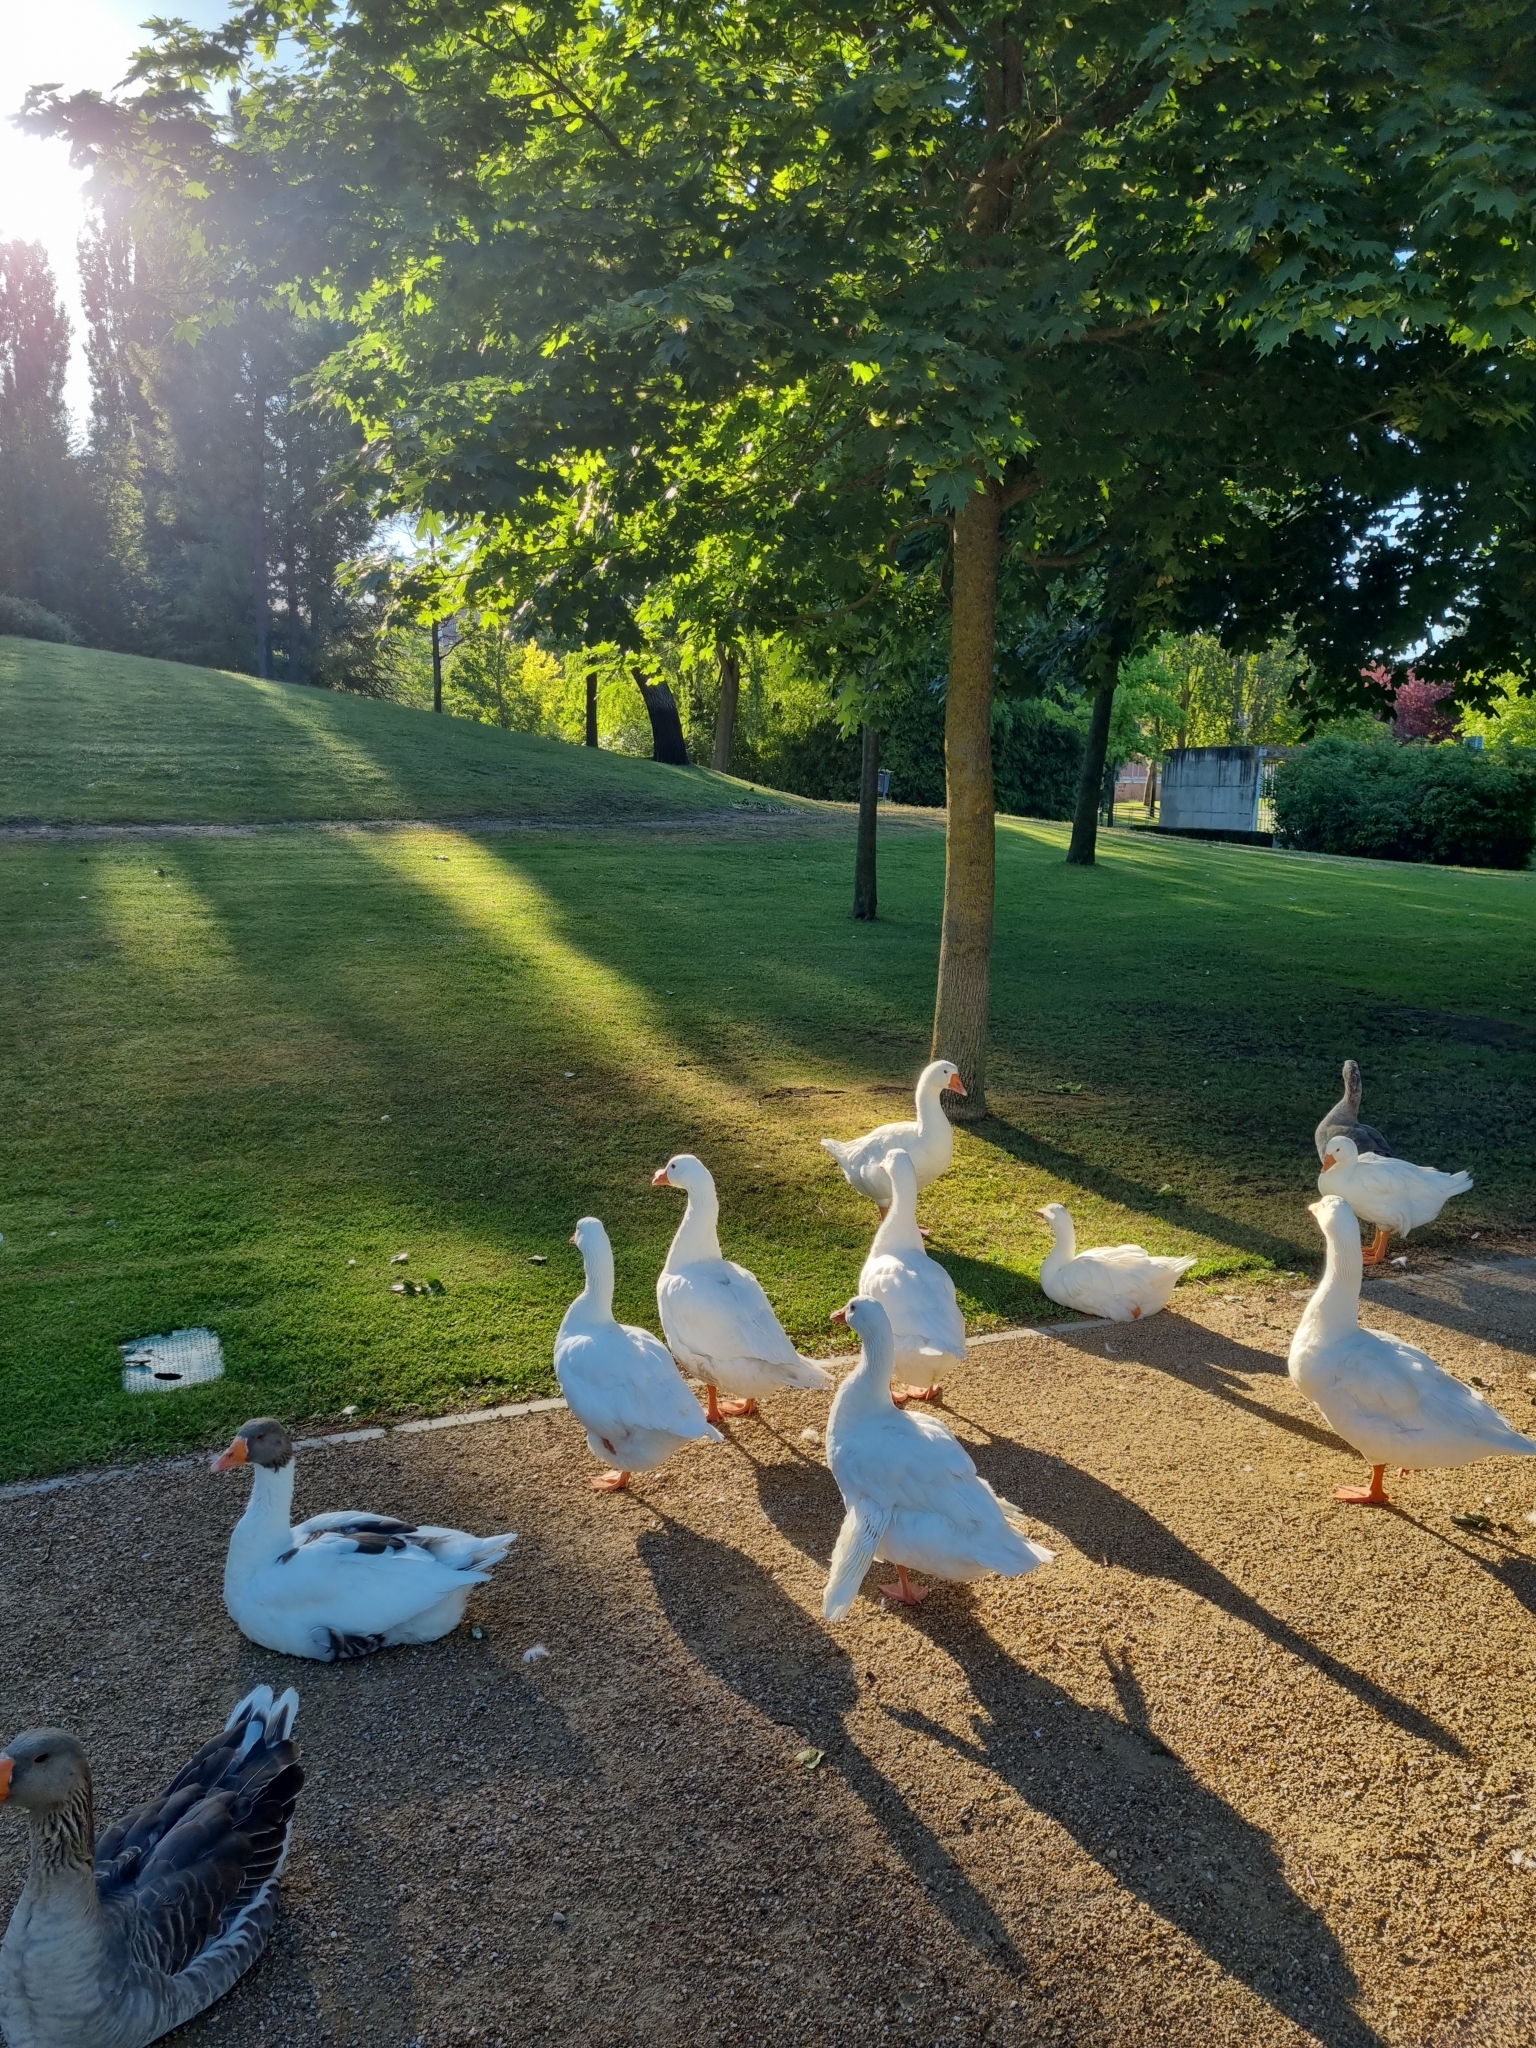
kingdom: Animalia
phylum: Chordata
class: Aves
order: Anseriformes
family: Anatidae
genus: Anser
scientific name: Anser anser
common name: Greylag goose
